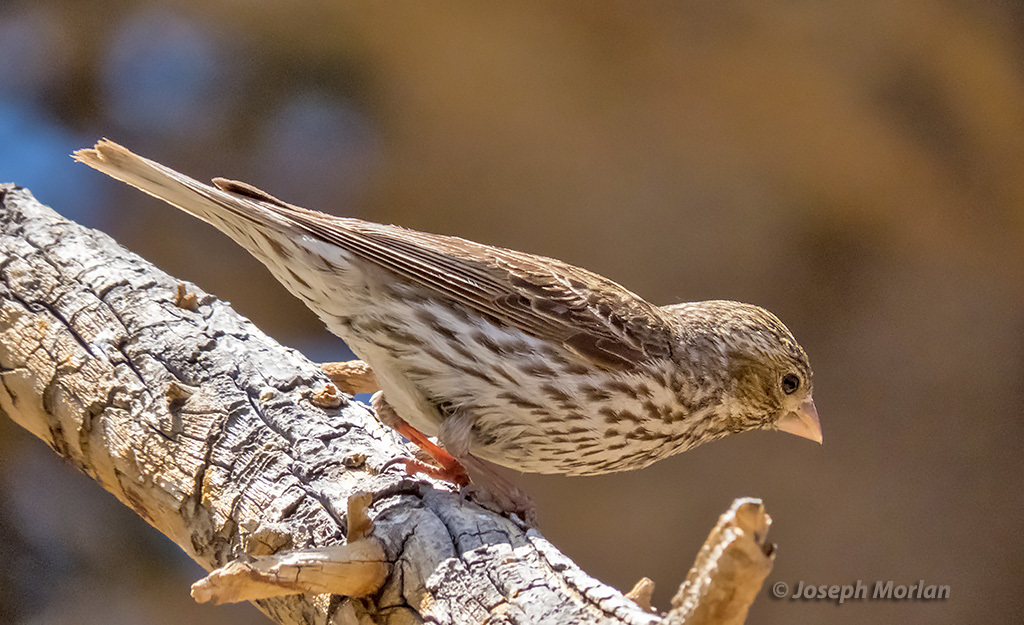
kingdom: Animalia
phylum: Chordata
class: Aves
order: Passeriformes
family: Fringillidae
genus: Haemorhous
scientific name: Haemorhous cassinii
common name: Cassin's finch
